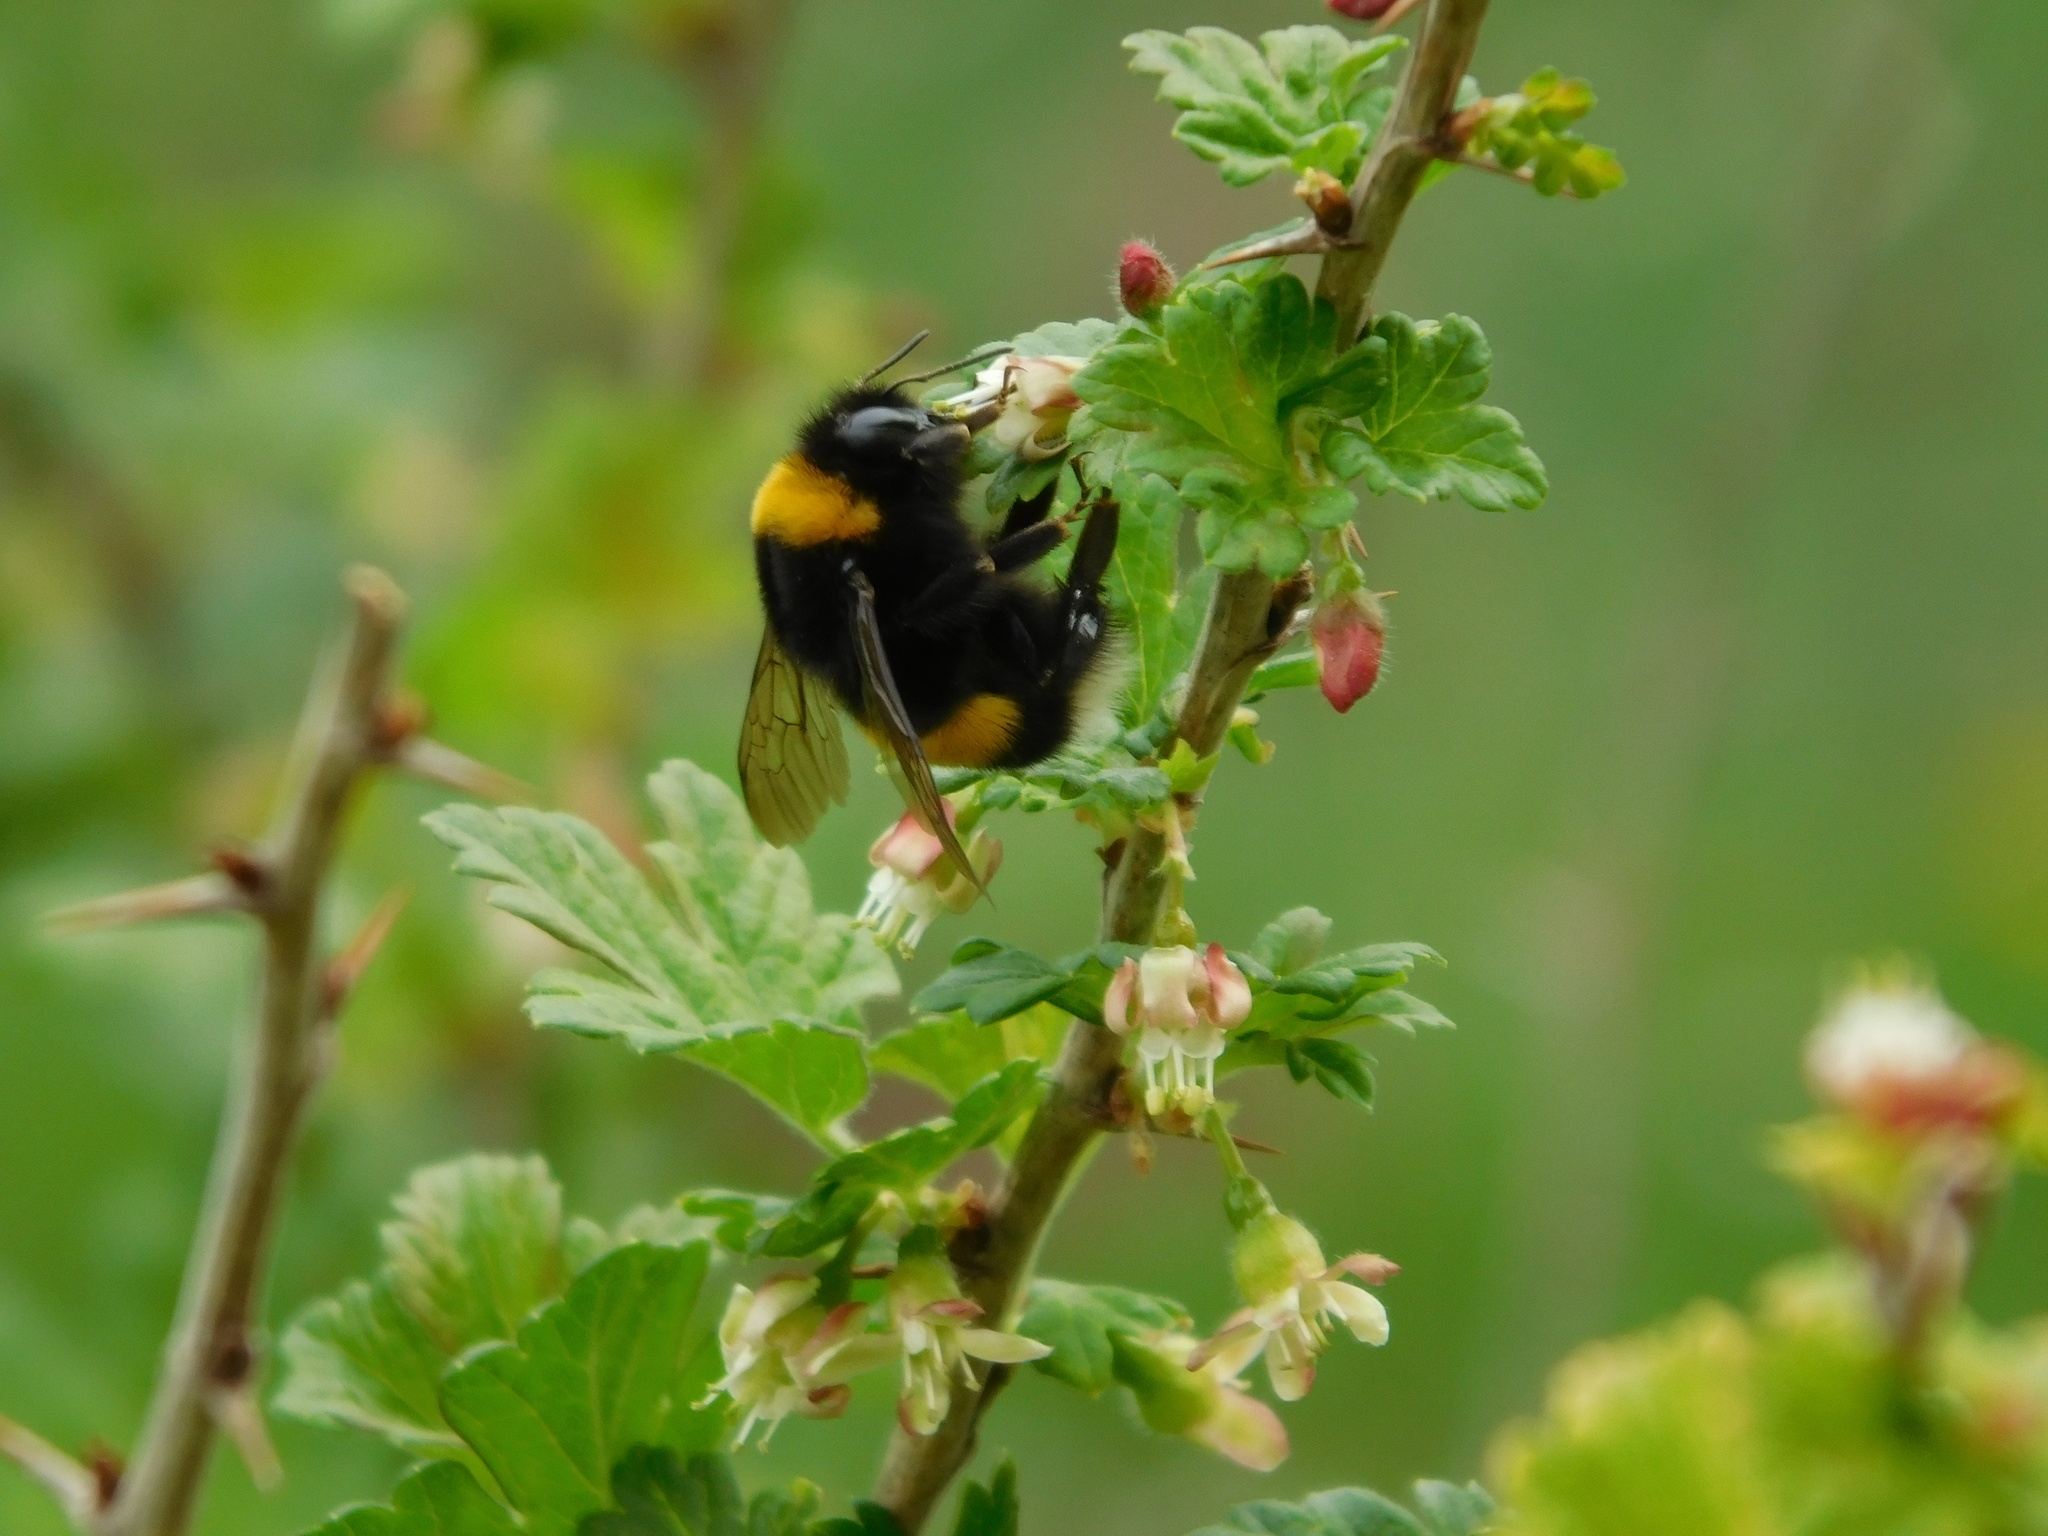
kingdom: Animalia
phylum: Arthropoda
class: Insecta
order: Hymenoptera
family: Apidae
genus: Bombus
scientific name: Bombus
